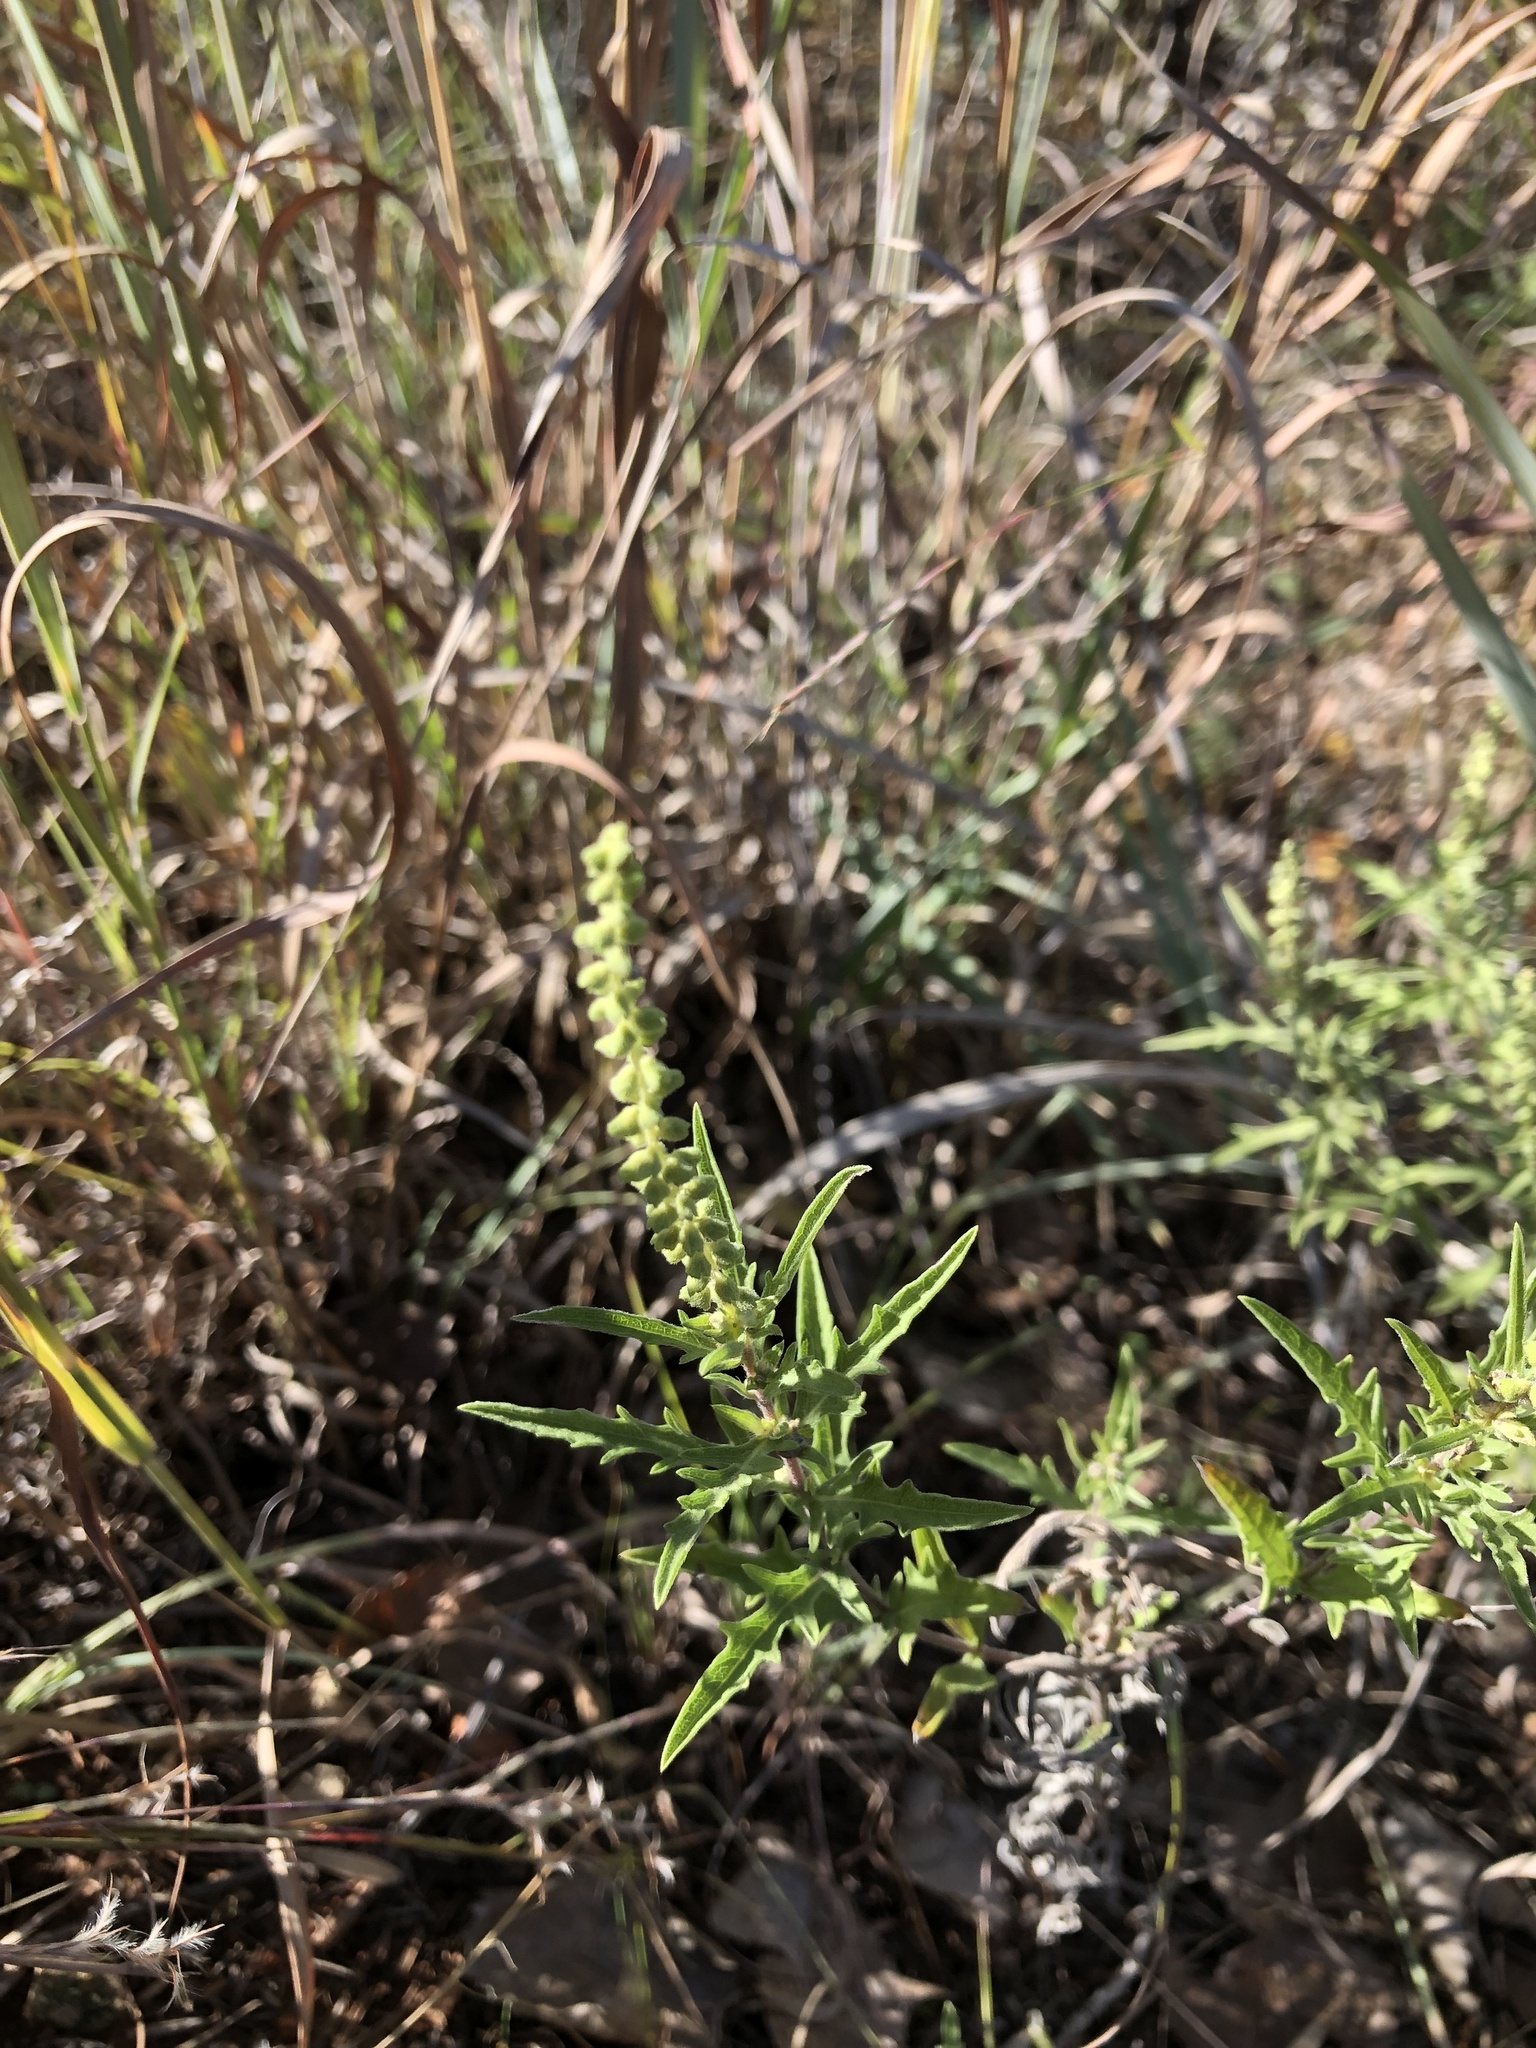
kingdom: Plantae
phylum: Tracheophyta
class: Magnoliopsida
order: Asterales
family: Asteraceae
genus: Ambrosia
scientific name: Ambrosia psilostachya
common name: Perennial ragweed
